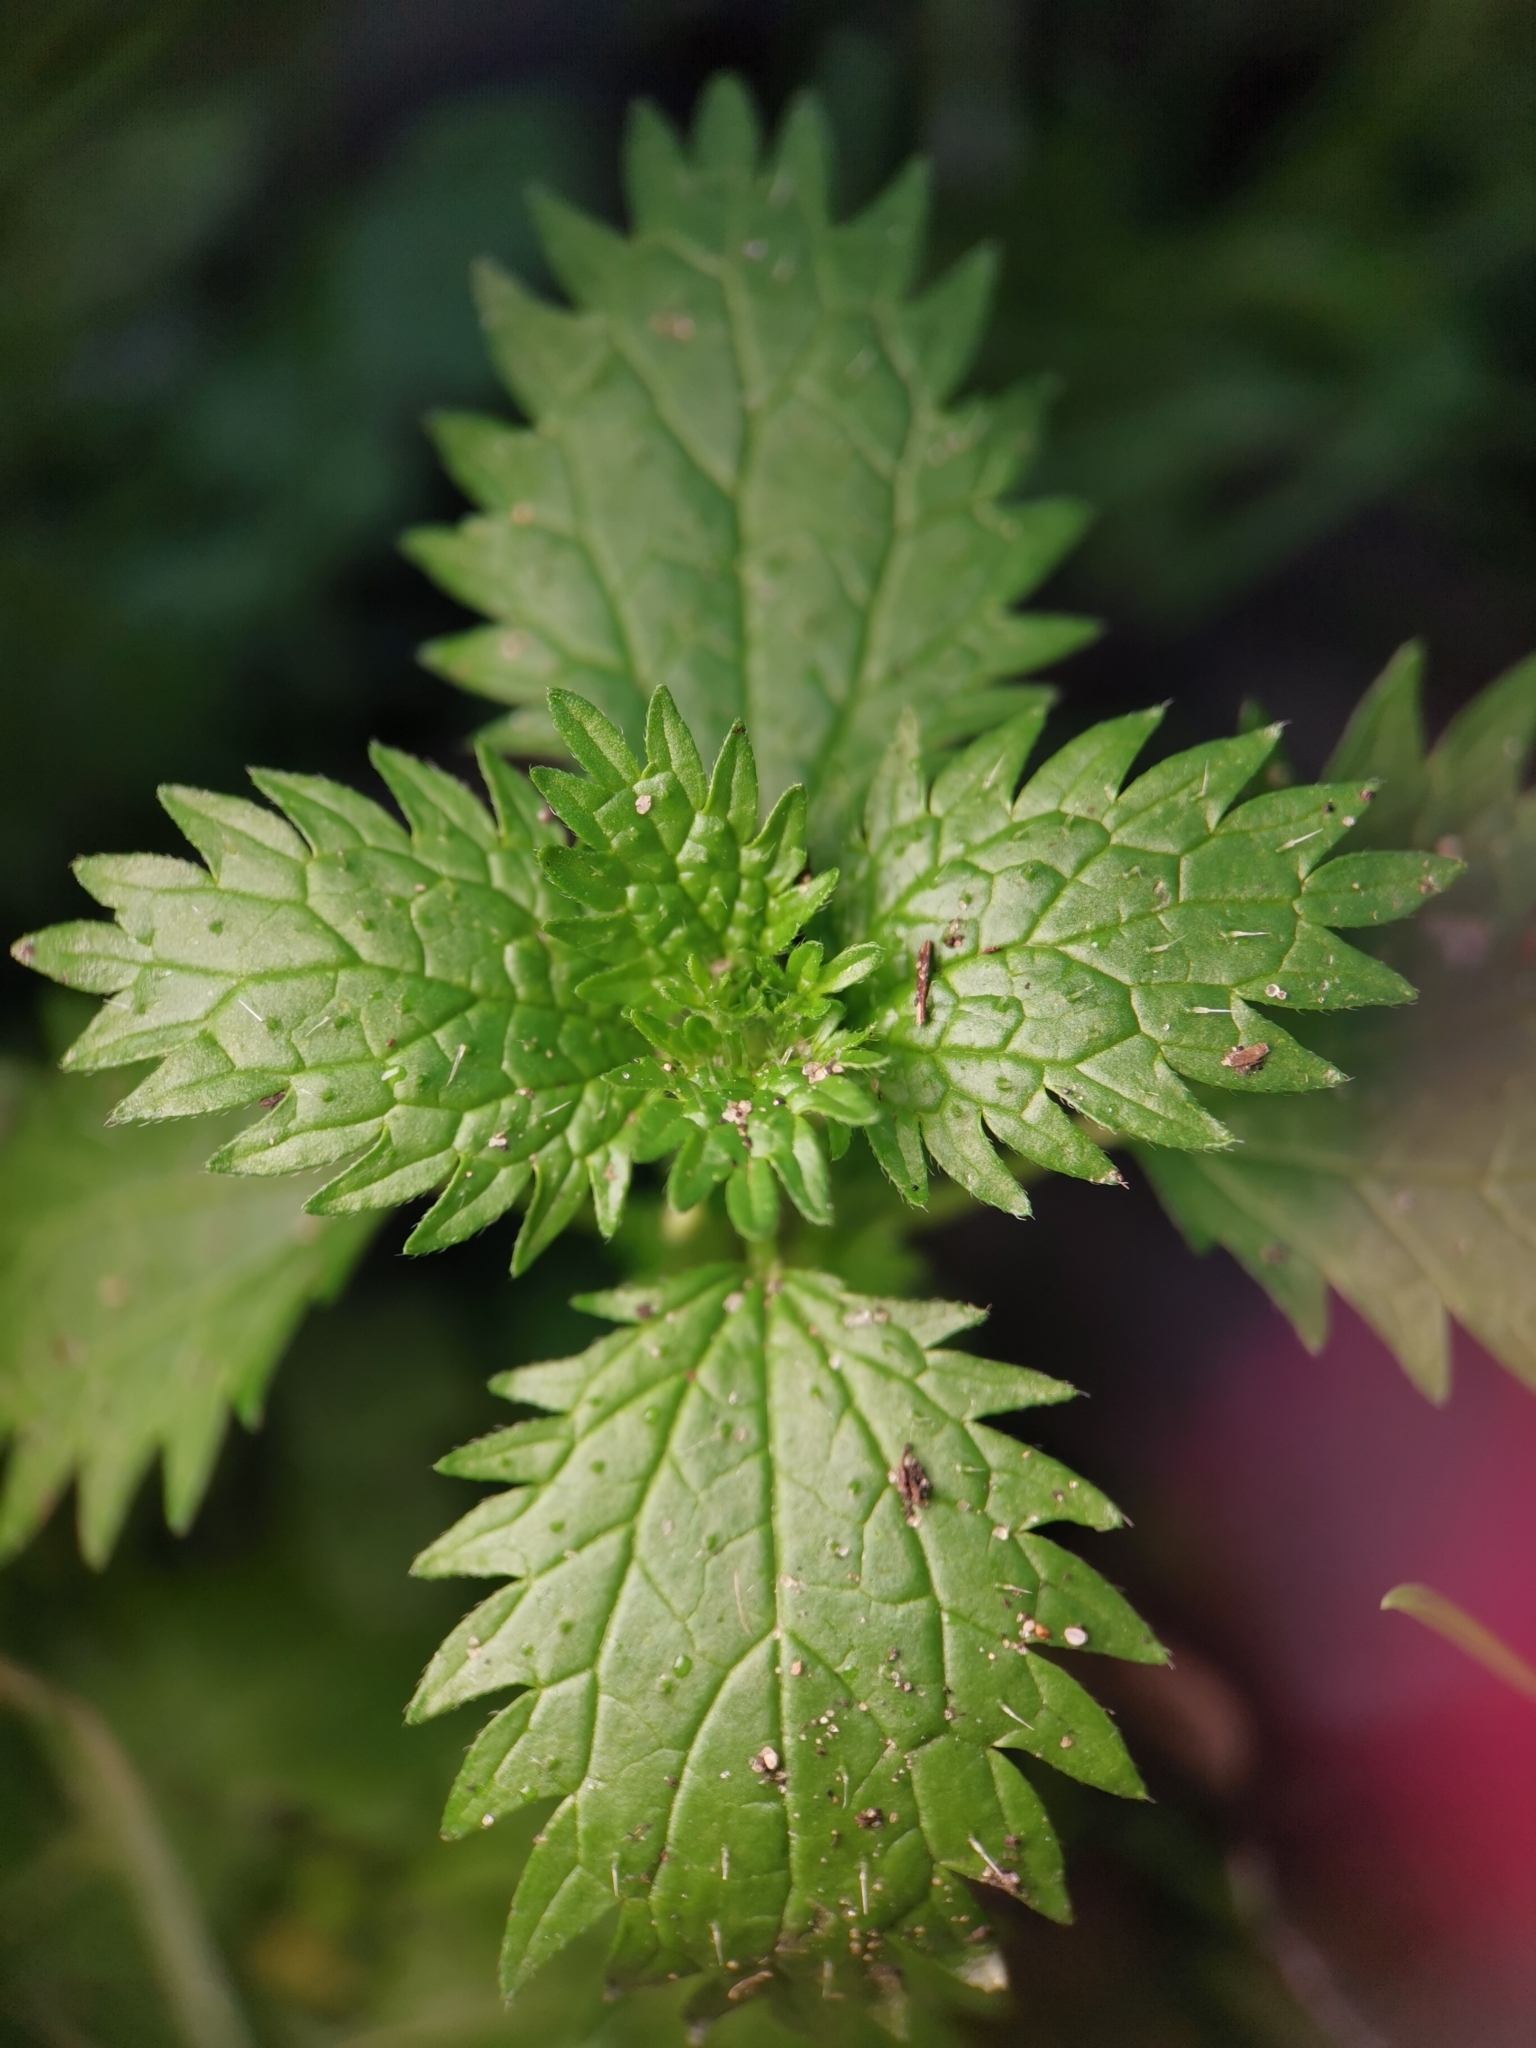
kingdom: Plantae
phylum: Tracheophyta
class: Magnoliopsida
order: Rosales
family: Urticaceae
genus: Urtica
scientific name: Urtica urens
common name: Dwarf nettle
